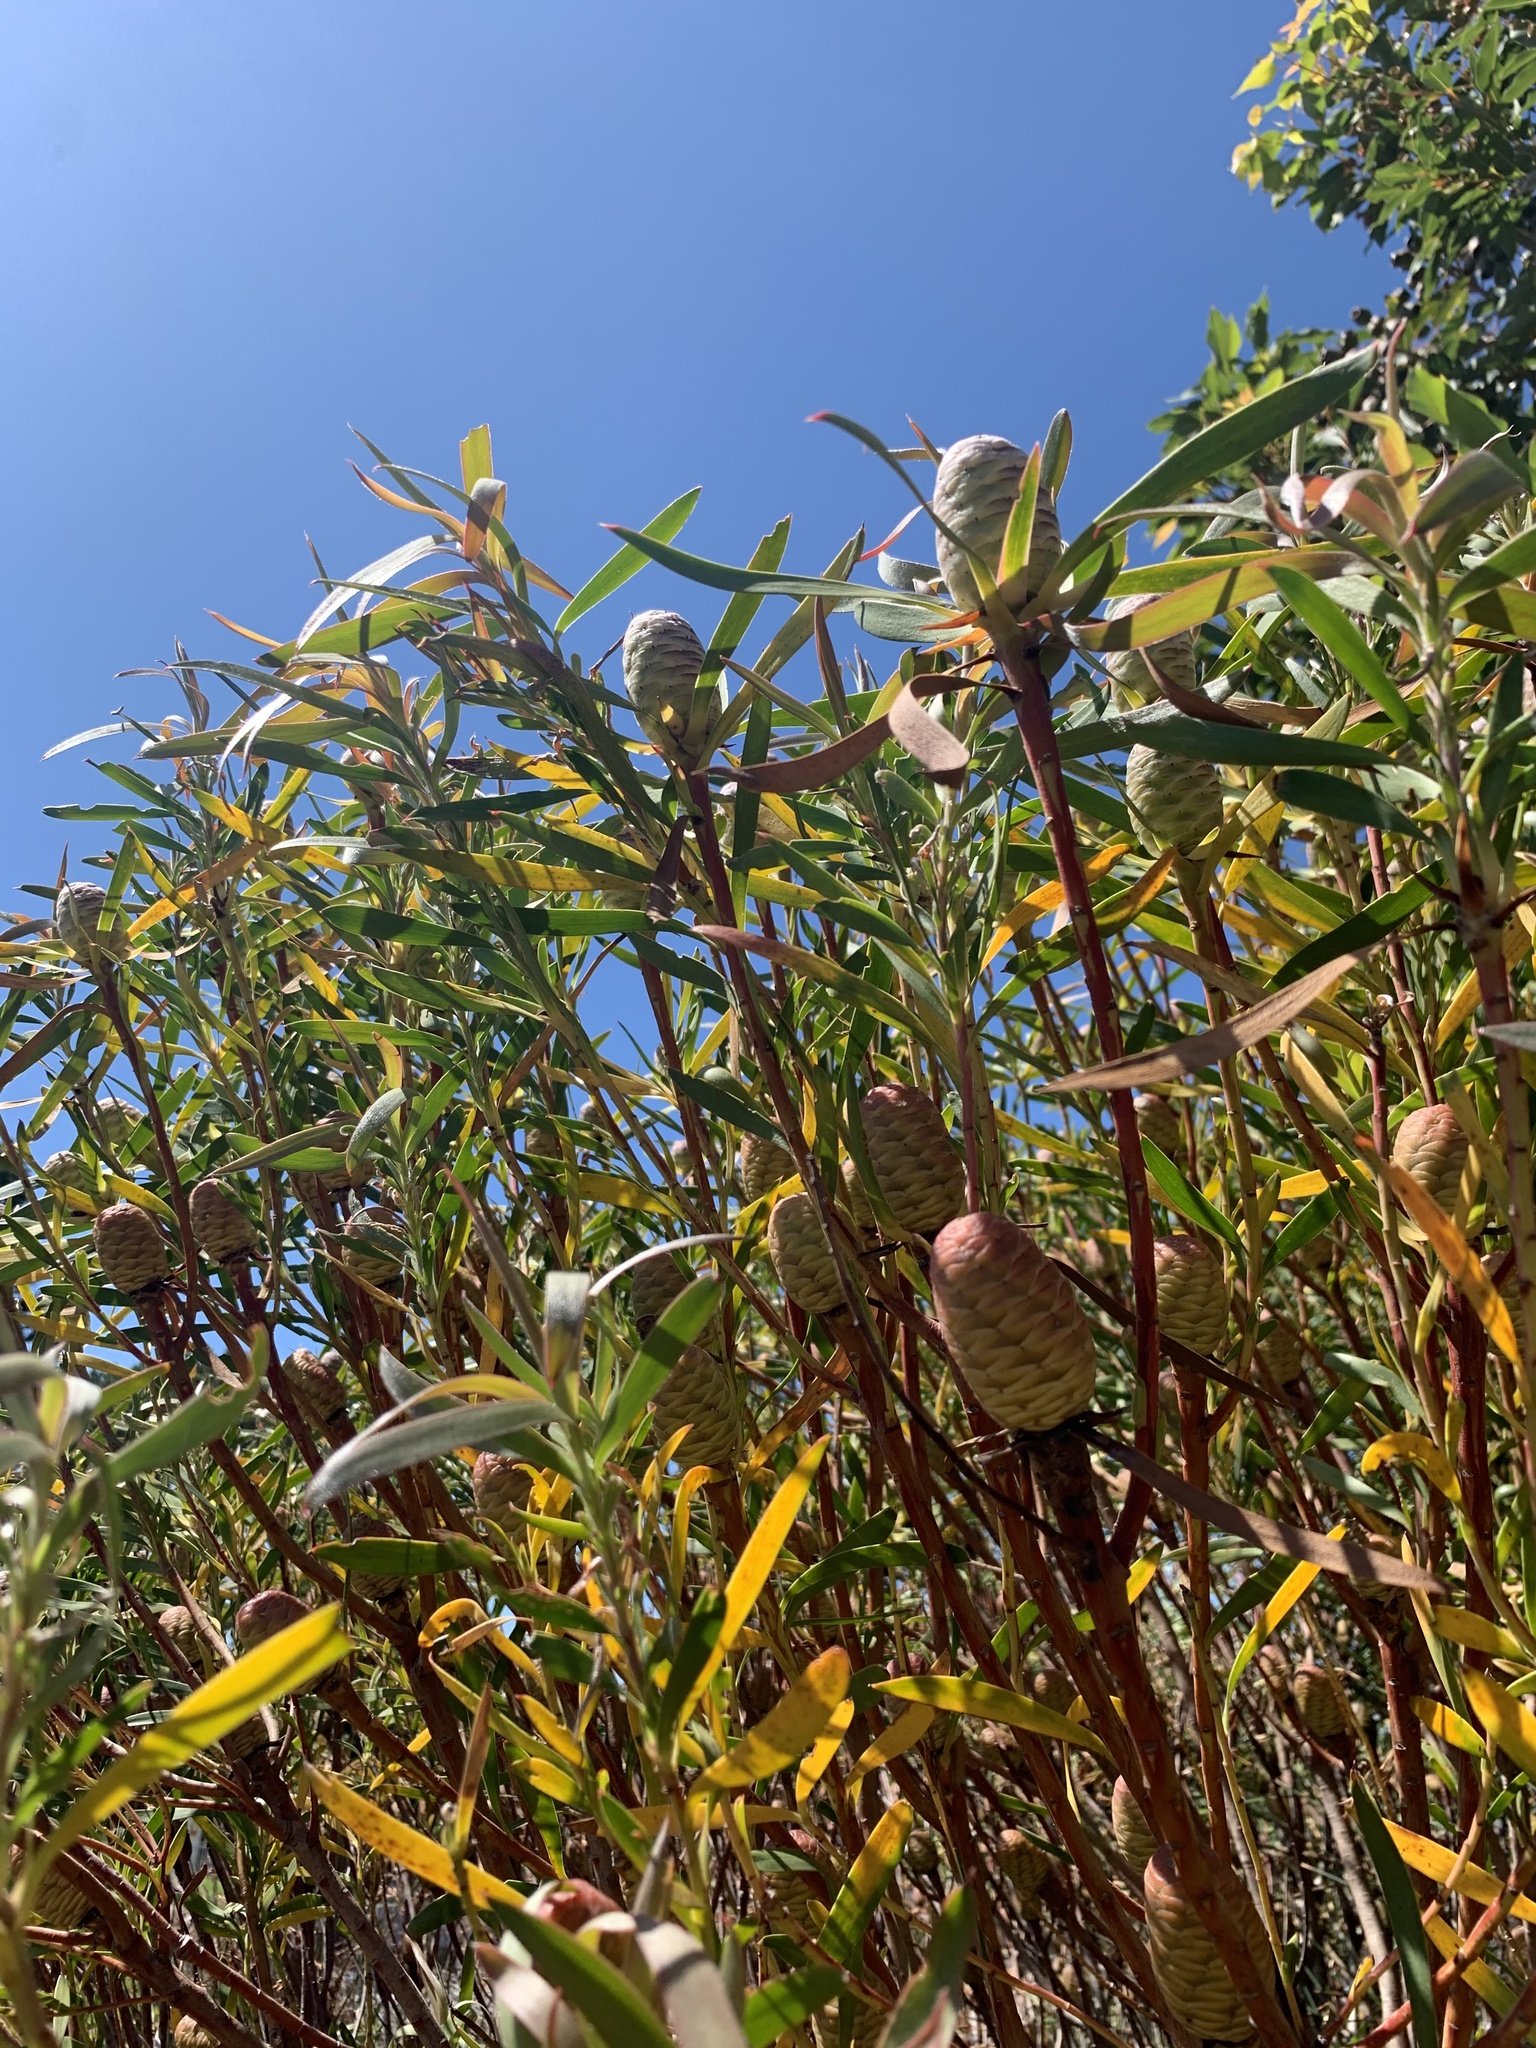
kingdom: Plantae
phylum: Tracheophyta
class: Magnoliopsida
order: Proteales
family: Proteaceae
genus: Leucadendron
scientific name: Leucadendron coniferum
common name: Dune conebush
